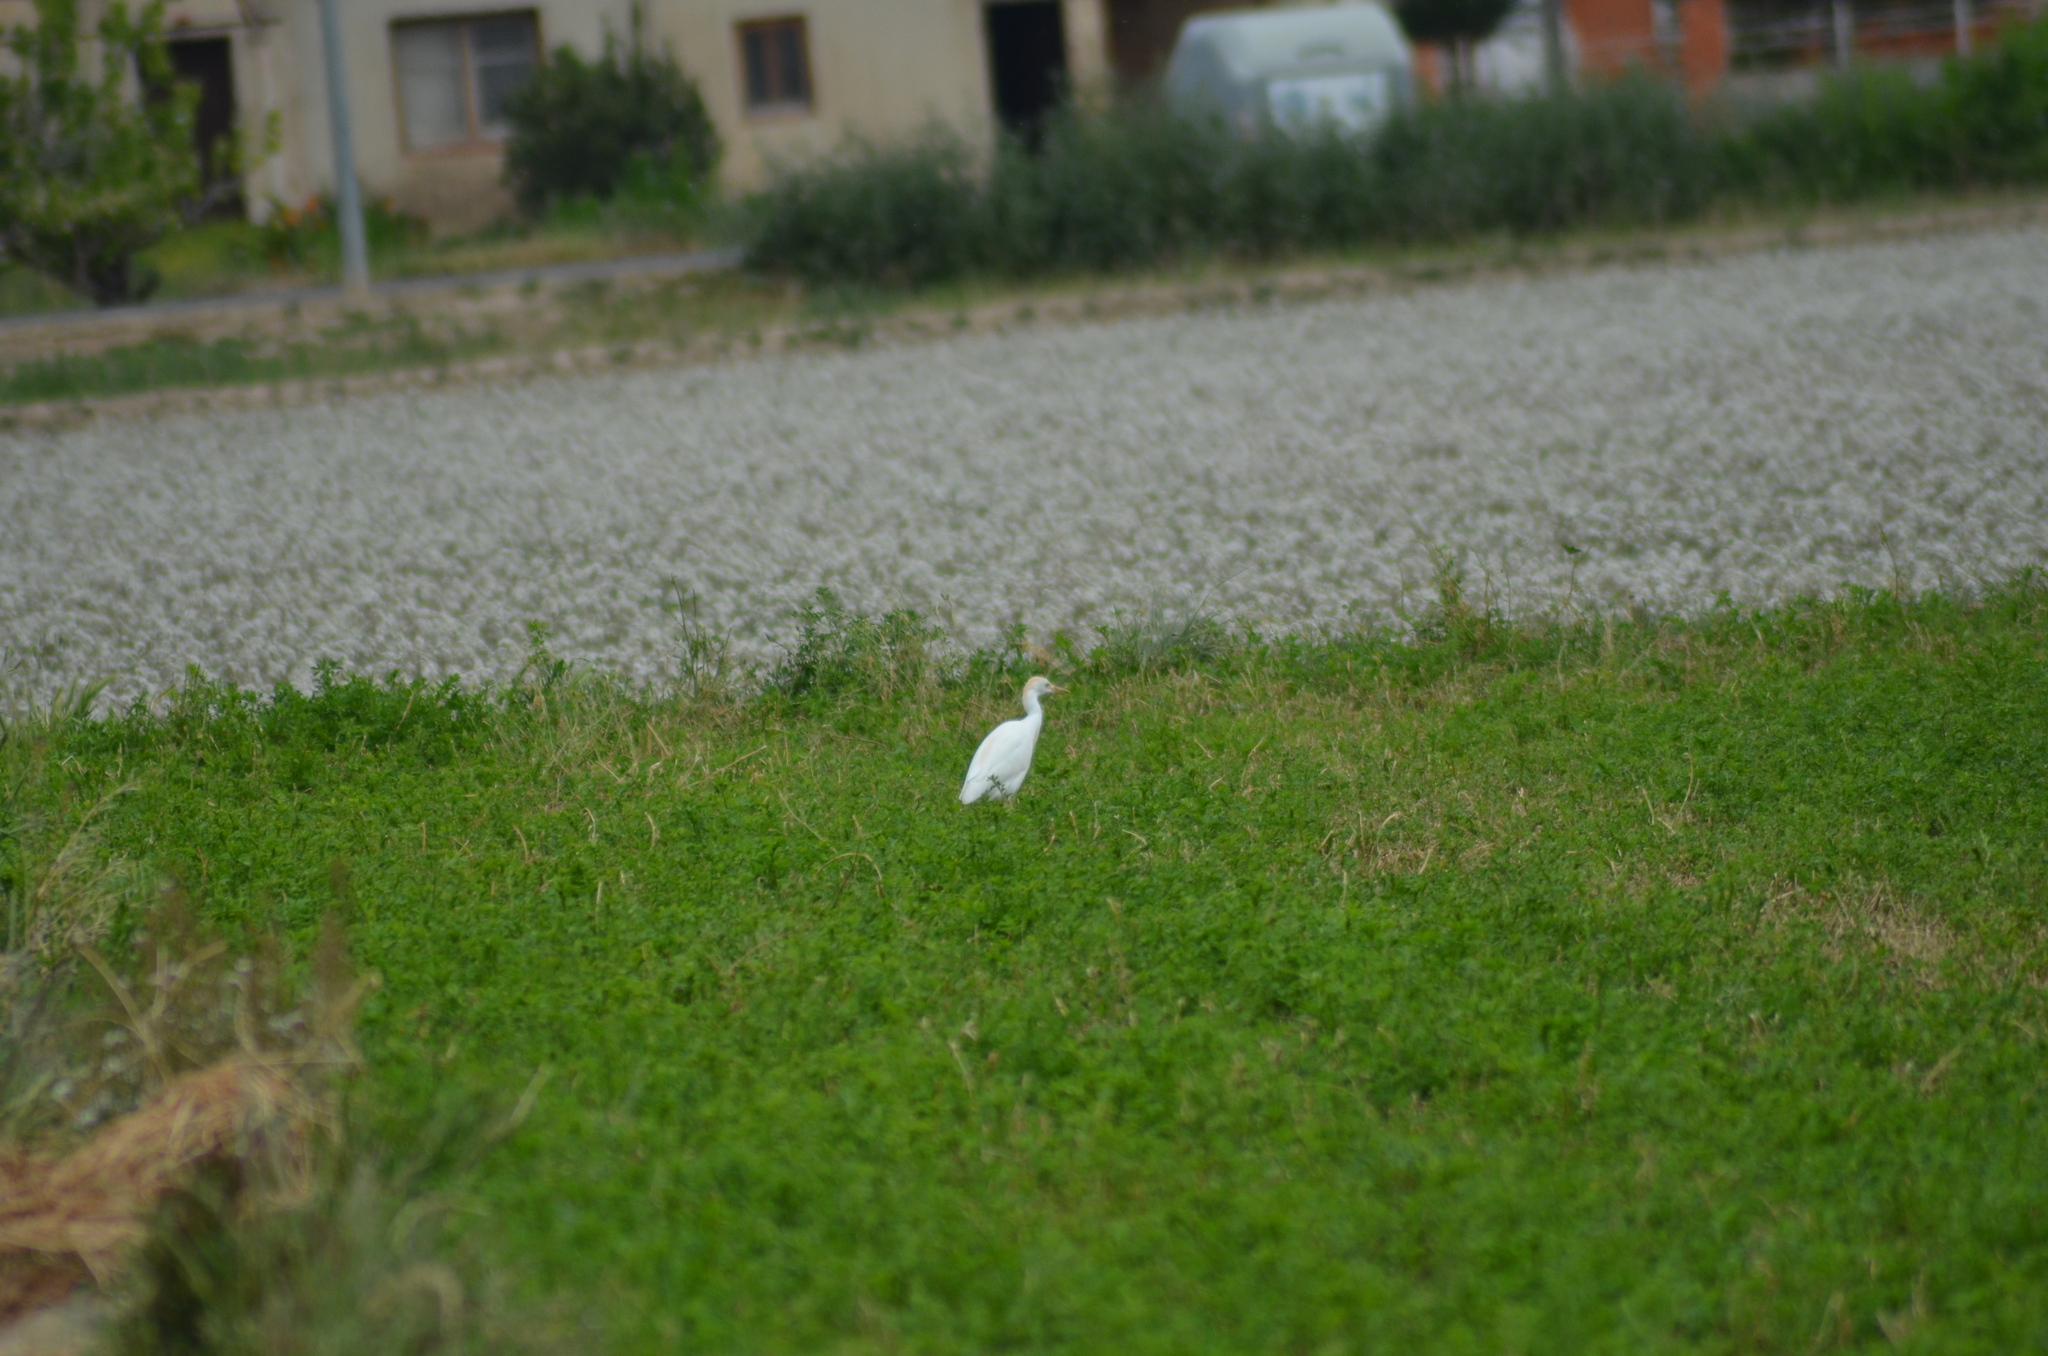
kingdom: Animalia
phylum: Chordata
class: Aves
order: Pelecaniformes
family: Ardeidae
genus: Bubulcus
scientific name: Bubulcus ibis
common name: Cattle egret
